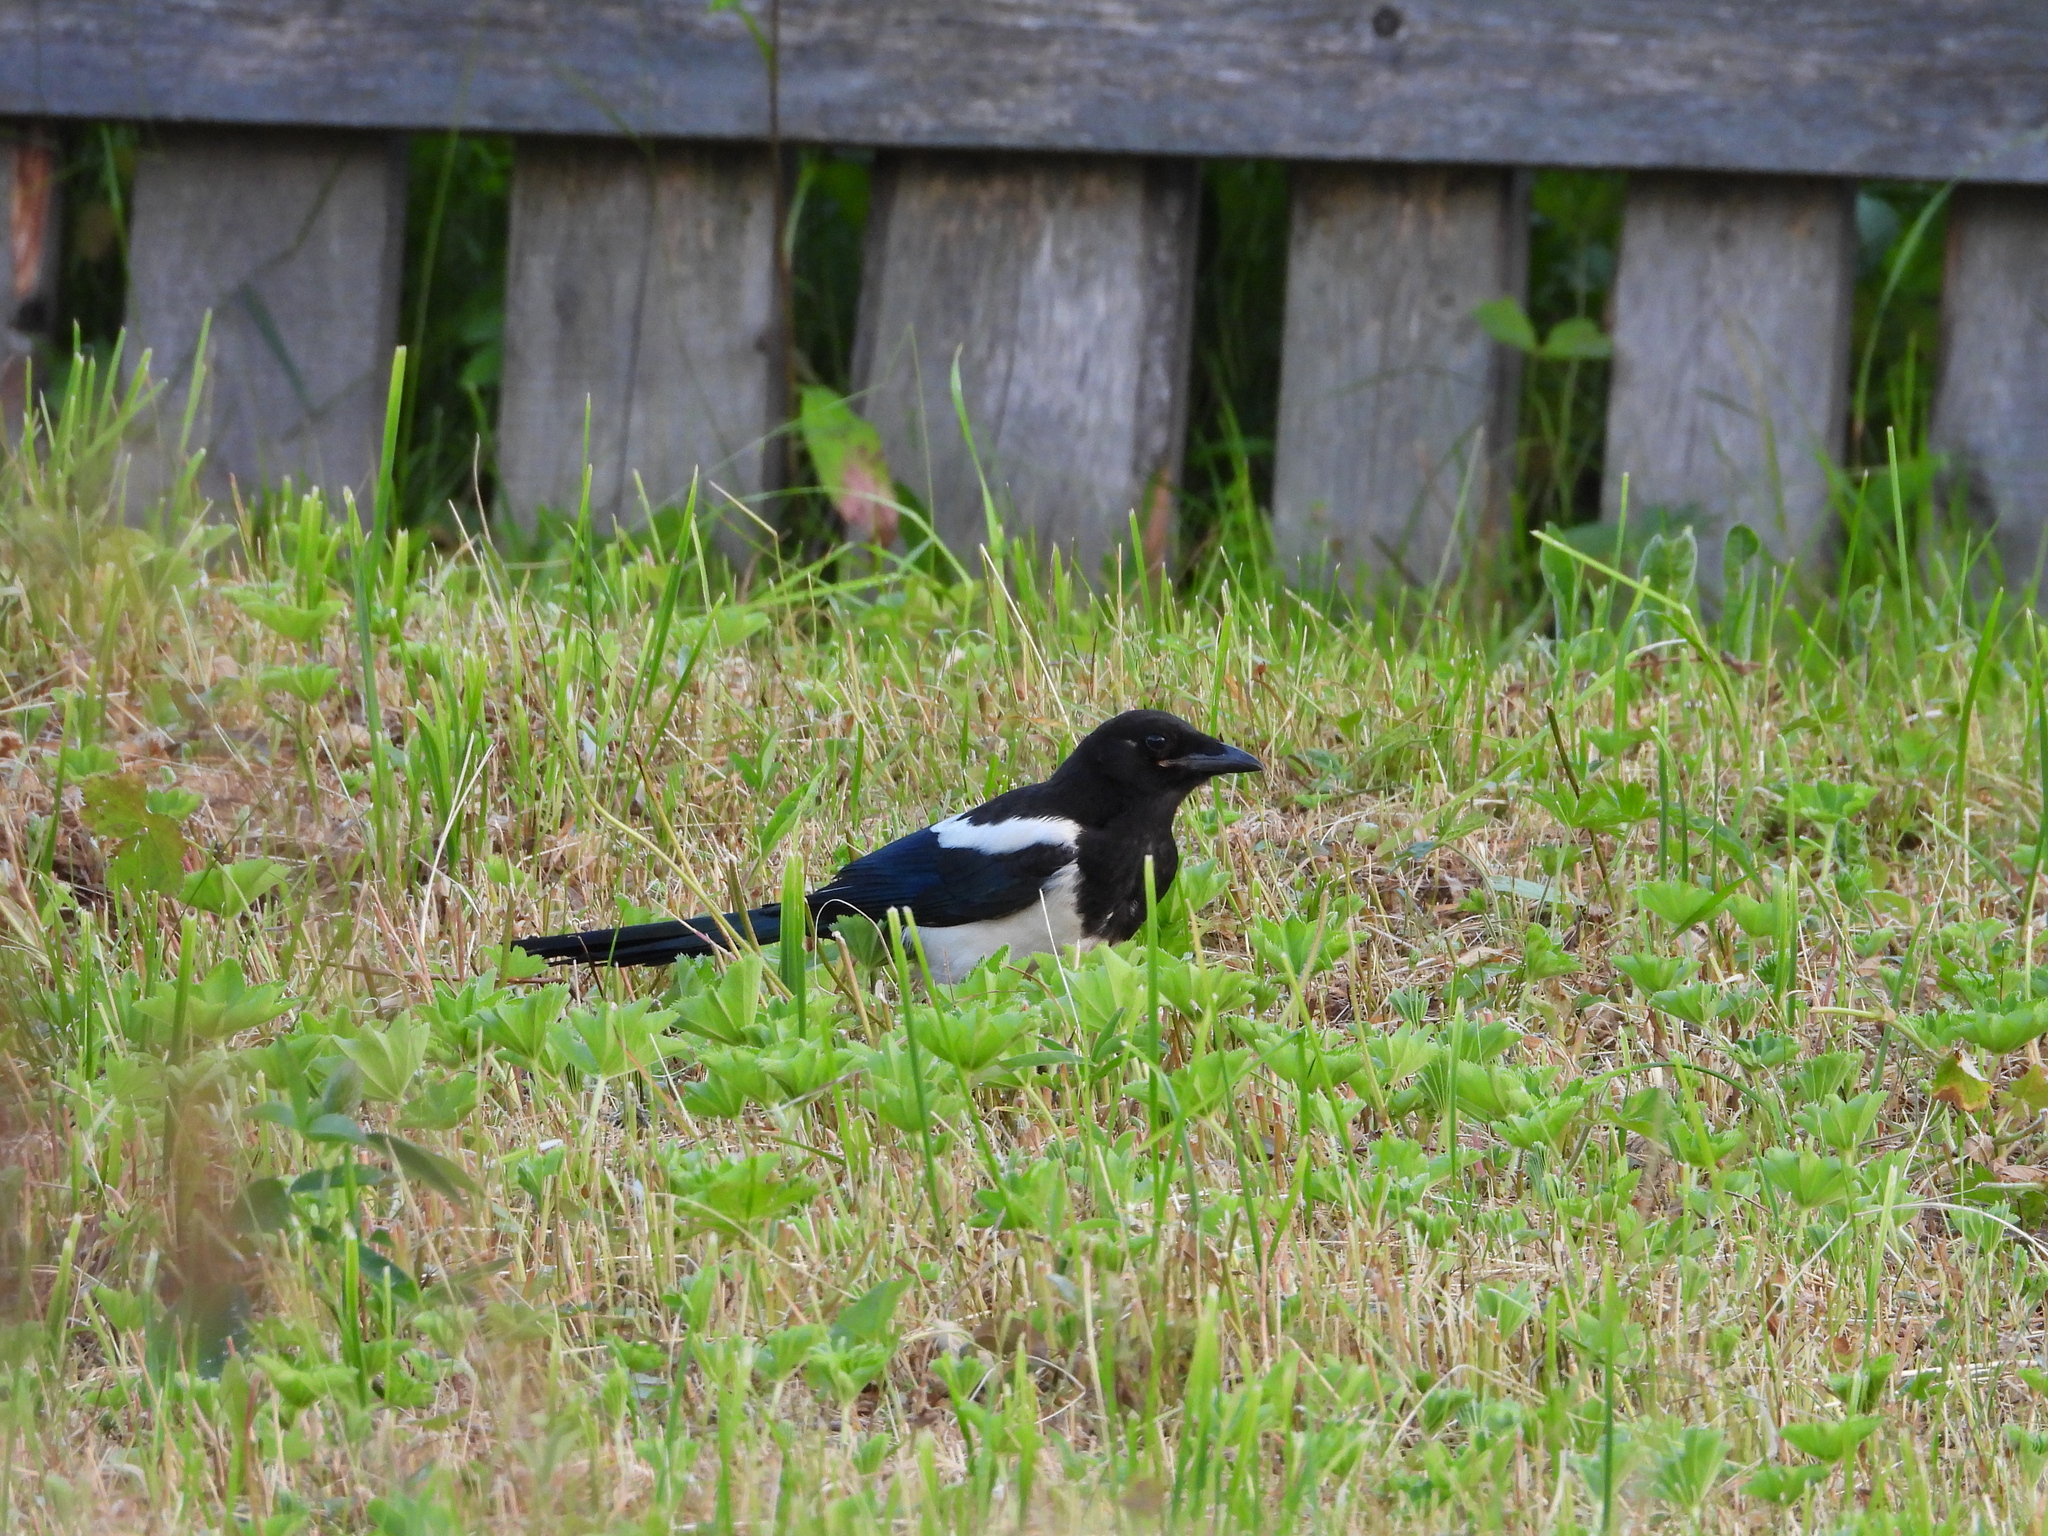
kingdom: Animalia
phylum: Chordata
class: Aves
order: Passeriformes
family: Corvidae
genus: Pica
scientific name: Pica pica
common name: Eurasian magpie
